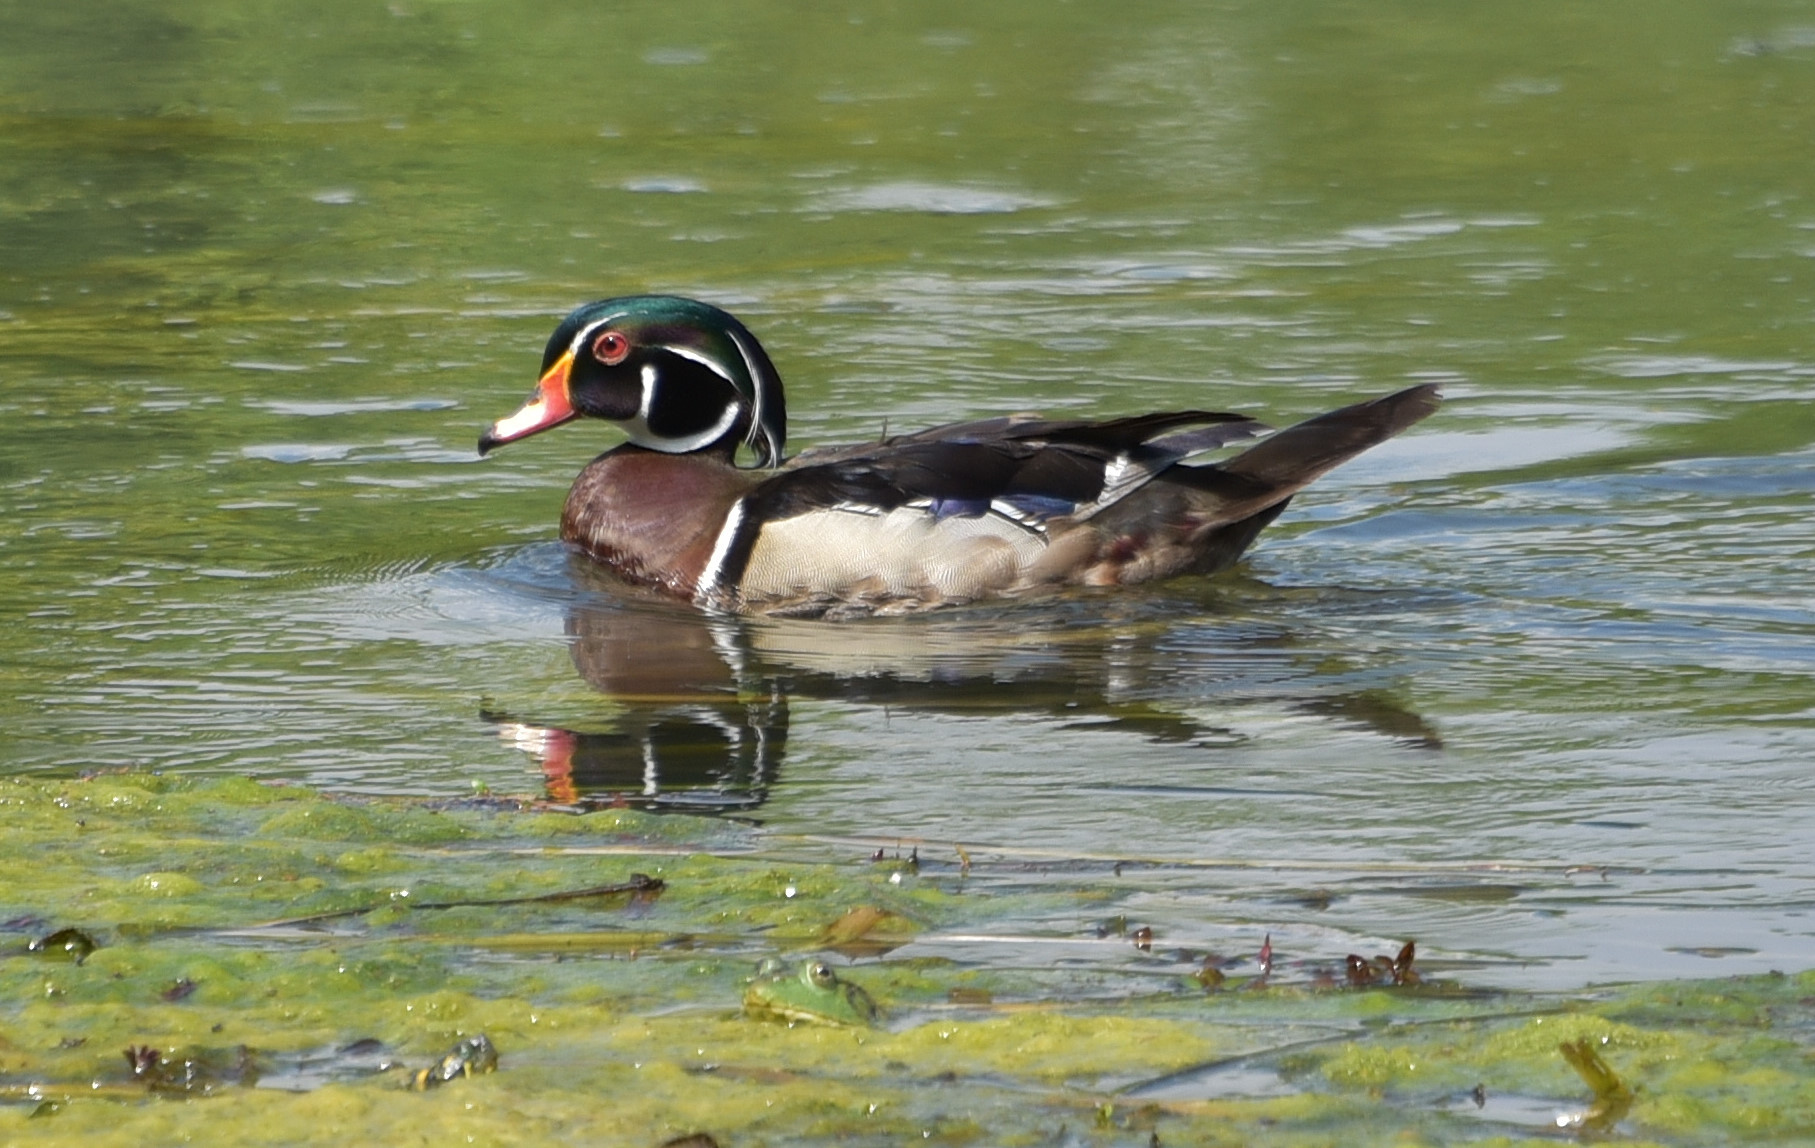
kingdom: Animalia
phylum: Chordata
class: Aves
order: Anseriformes
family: Anatidae
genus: Aix
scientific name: Aix sponsa
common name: Wood duck
